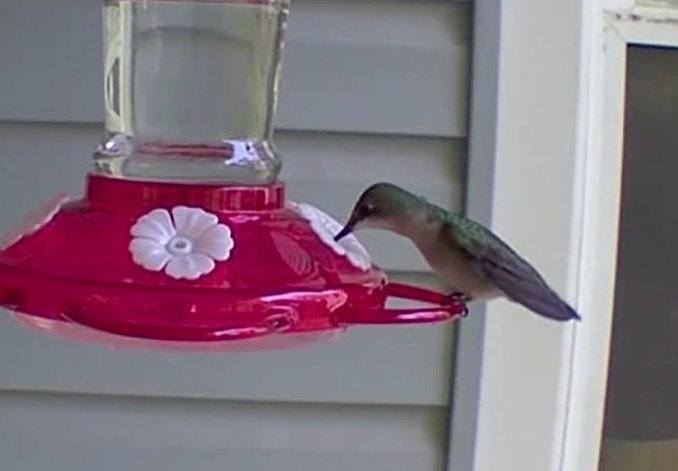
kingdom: Animalia
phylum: Chordata
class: Aves
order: Apodiformes
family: Trochilidae
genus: Archilochus
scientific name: Archilochus colubris
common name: Ruby-throated hummingbird
